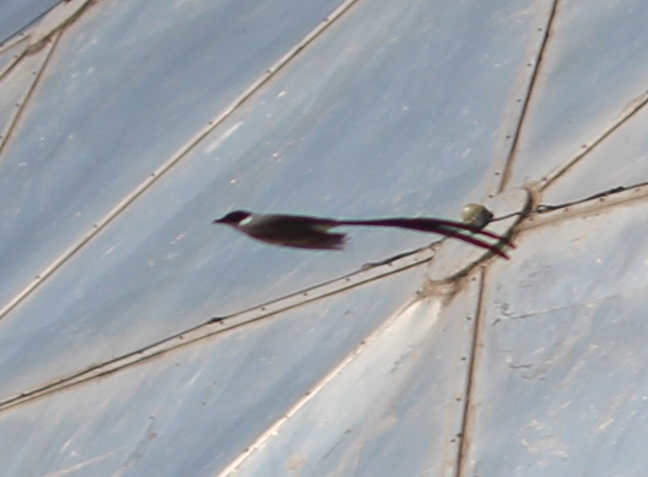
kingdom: Animalia
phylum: Chordata
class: Aves
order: Passeriformes
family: Tyrannidae
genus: Tyrannus
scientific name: Tyrannus savana
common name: Fork-tailed flycatcher
